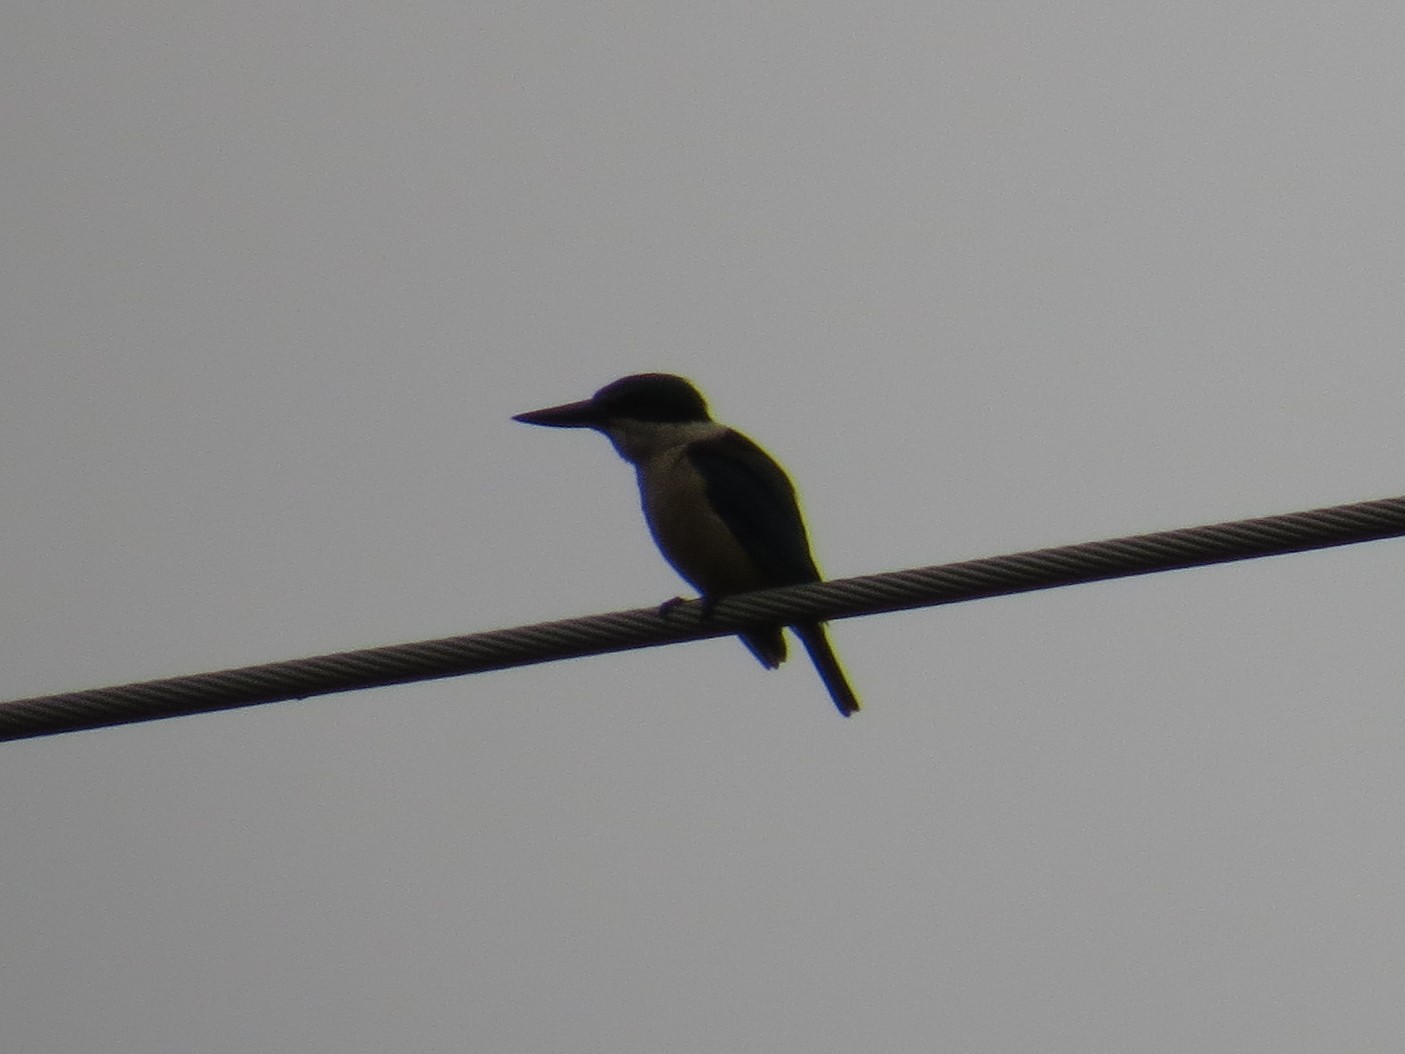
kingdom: Animalia
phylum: Chordata
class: Aves
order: Coraciiformes
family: Alcedinidae
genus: Todiramphus
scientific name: Todiramphus sanctus
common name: Sacred kingfisher
